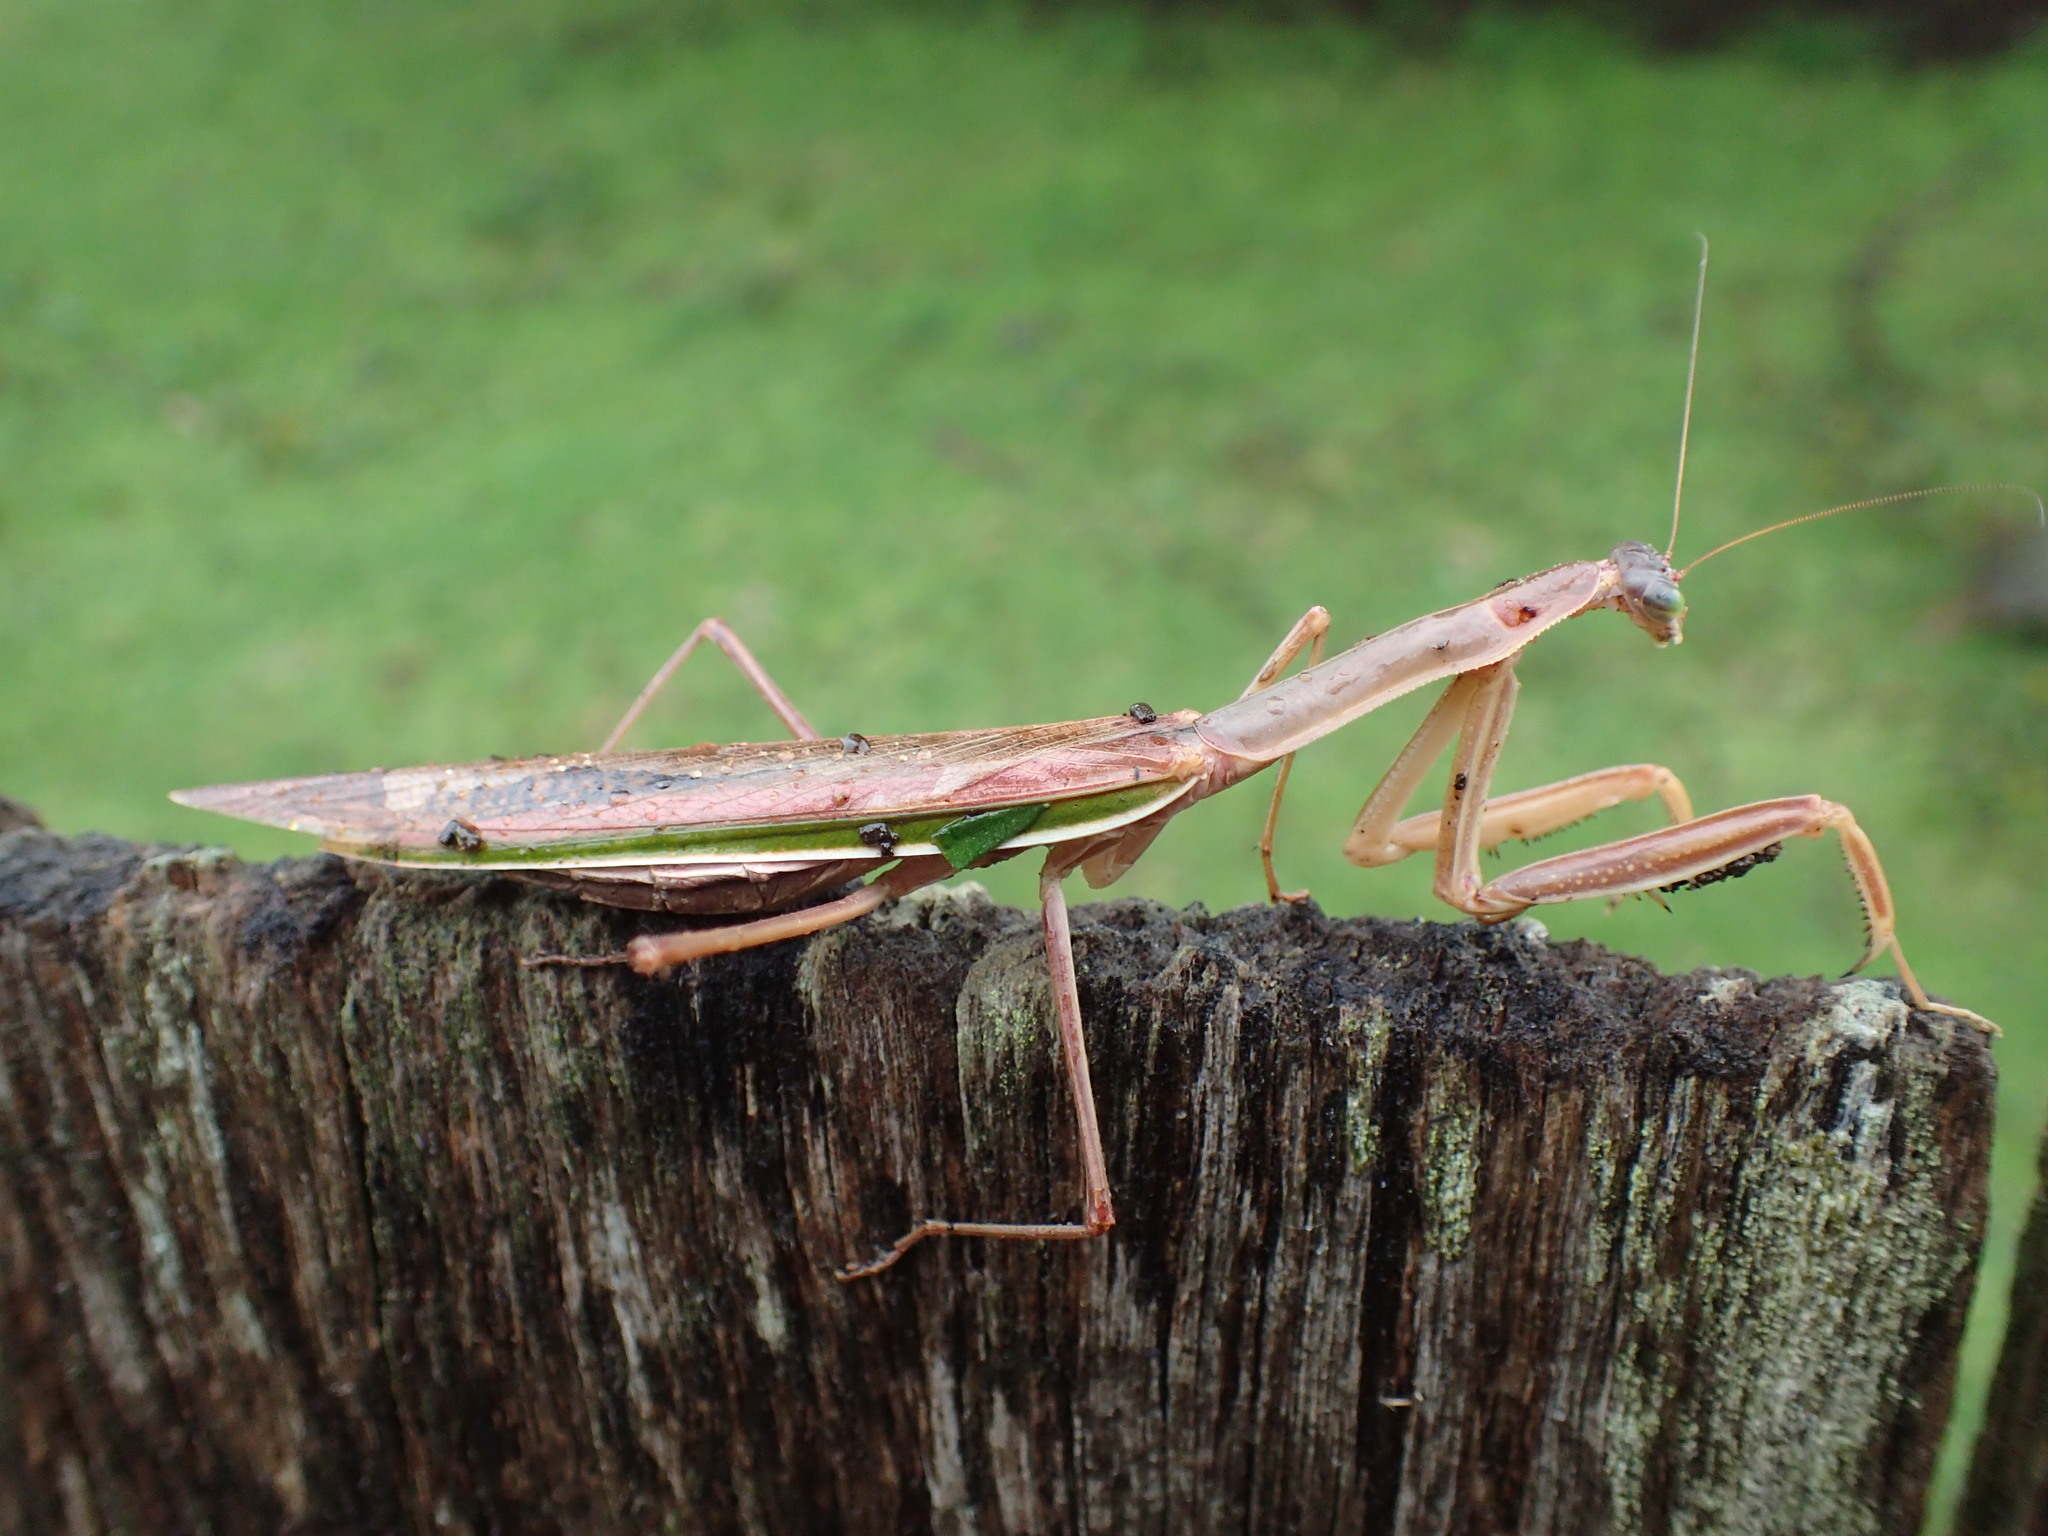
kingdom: Animalia
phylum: Arthropoda
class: Insecta
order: Mantodea
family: Mantidae
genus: Tenodera
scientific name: Tenodera australasiae
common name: Purple-winged mantis
